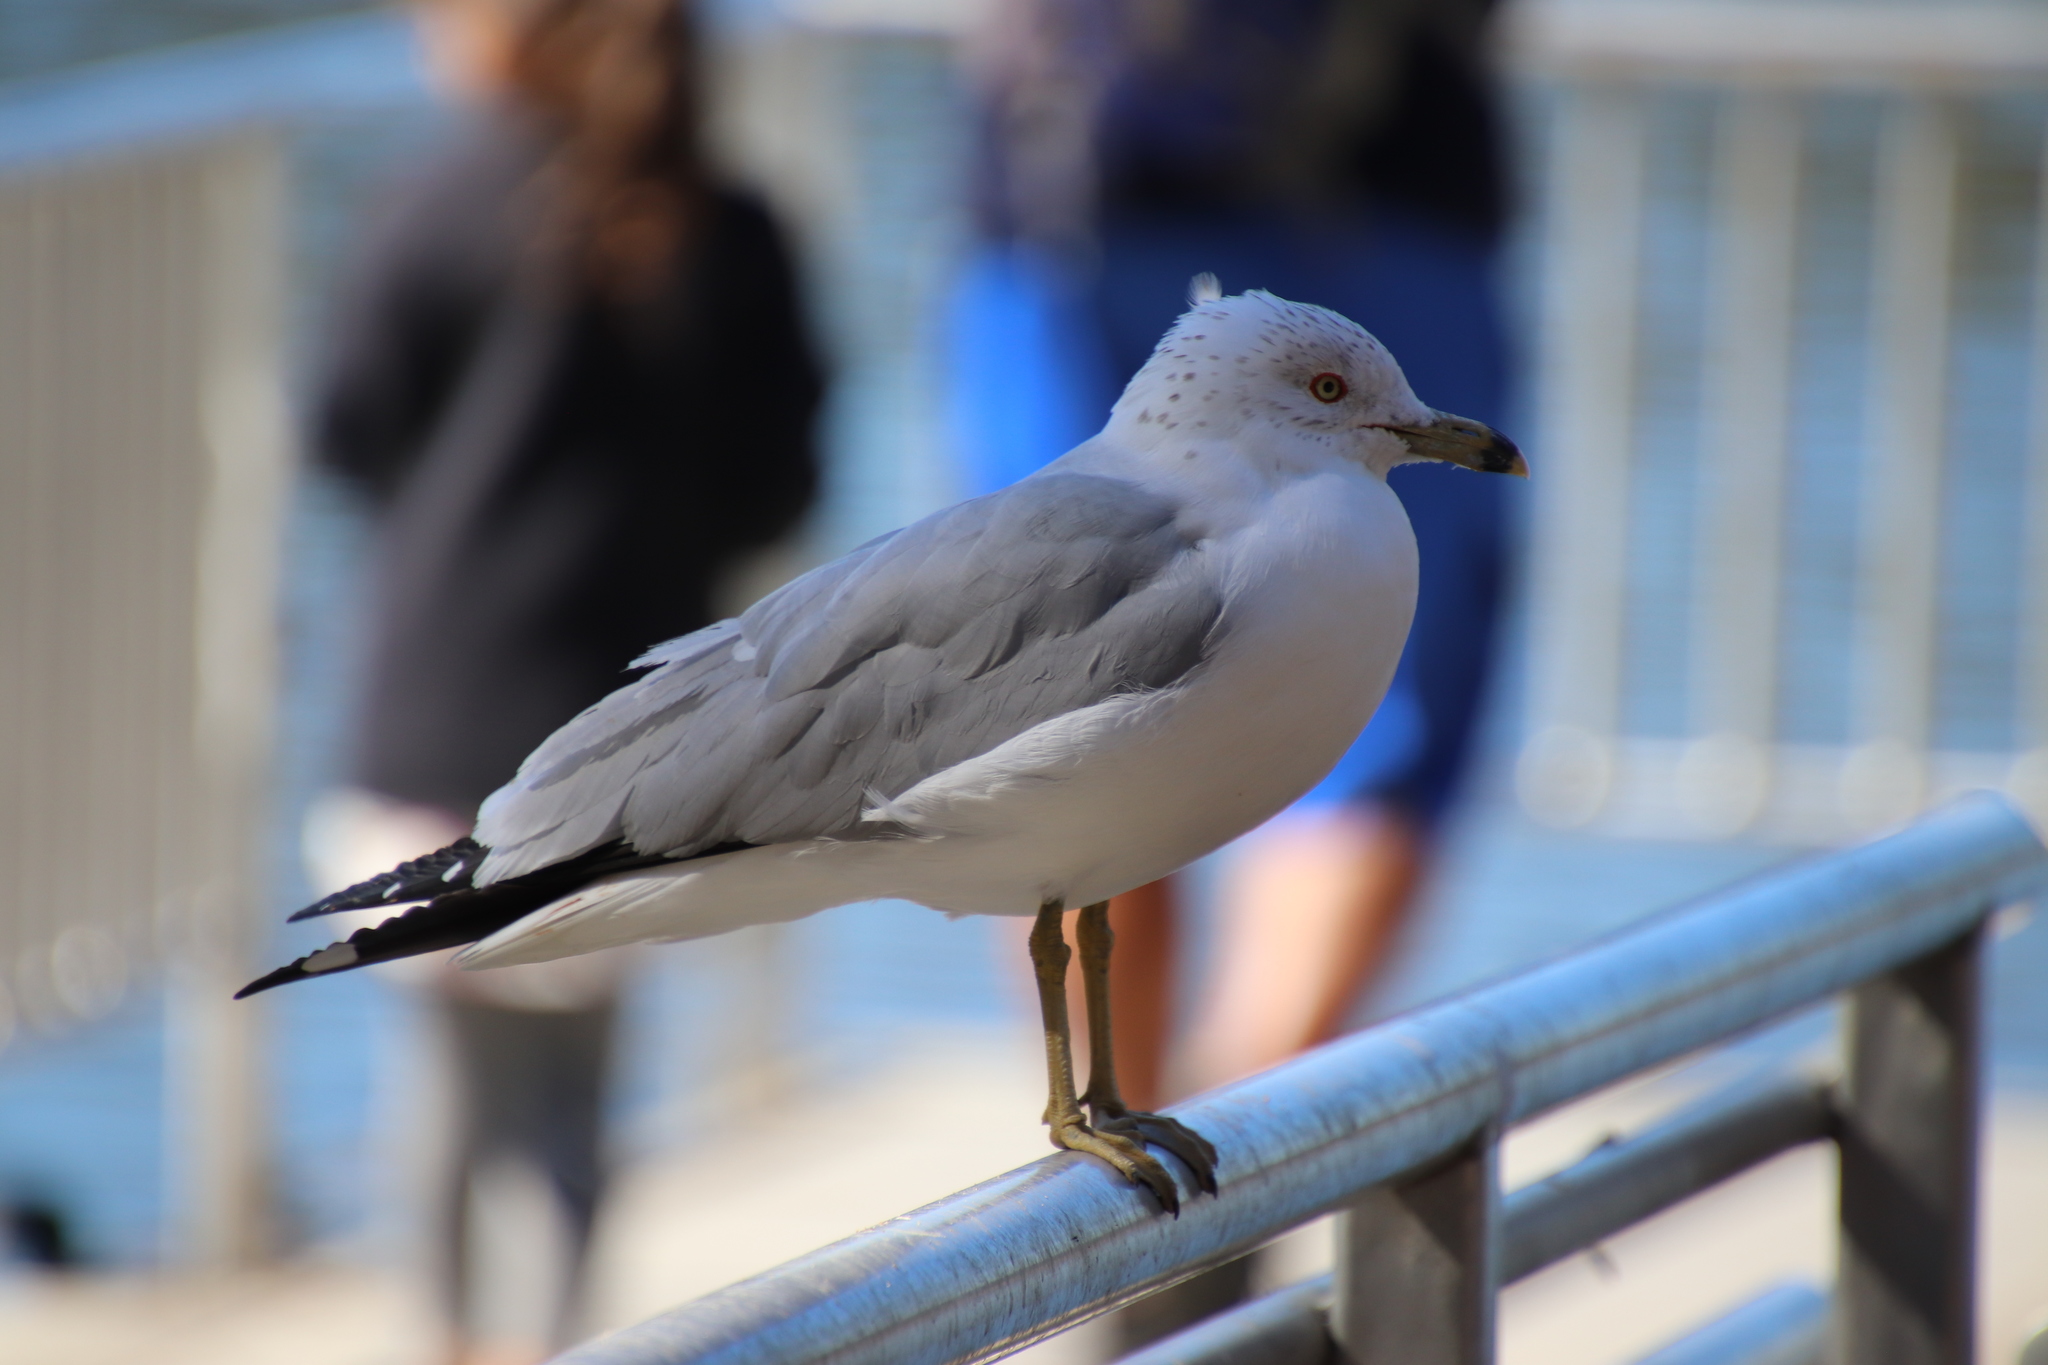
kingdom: Animalia
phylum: Chordata
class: Aves
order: Charadriiformes
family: Laridae
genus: Larus
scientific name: Larus delawarensis
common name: Ring-billed gull
